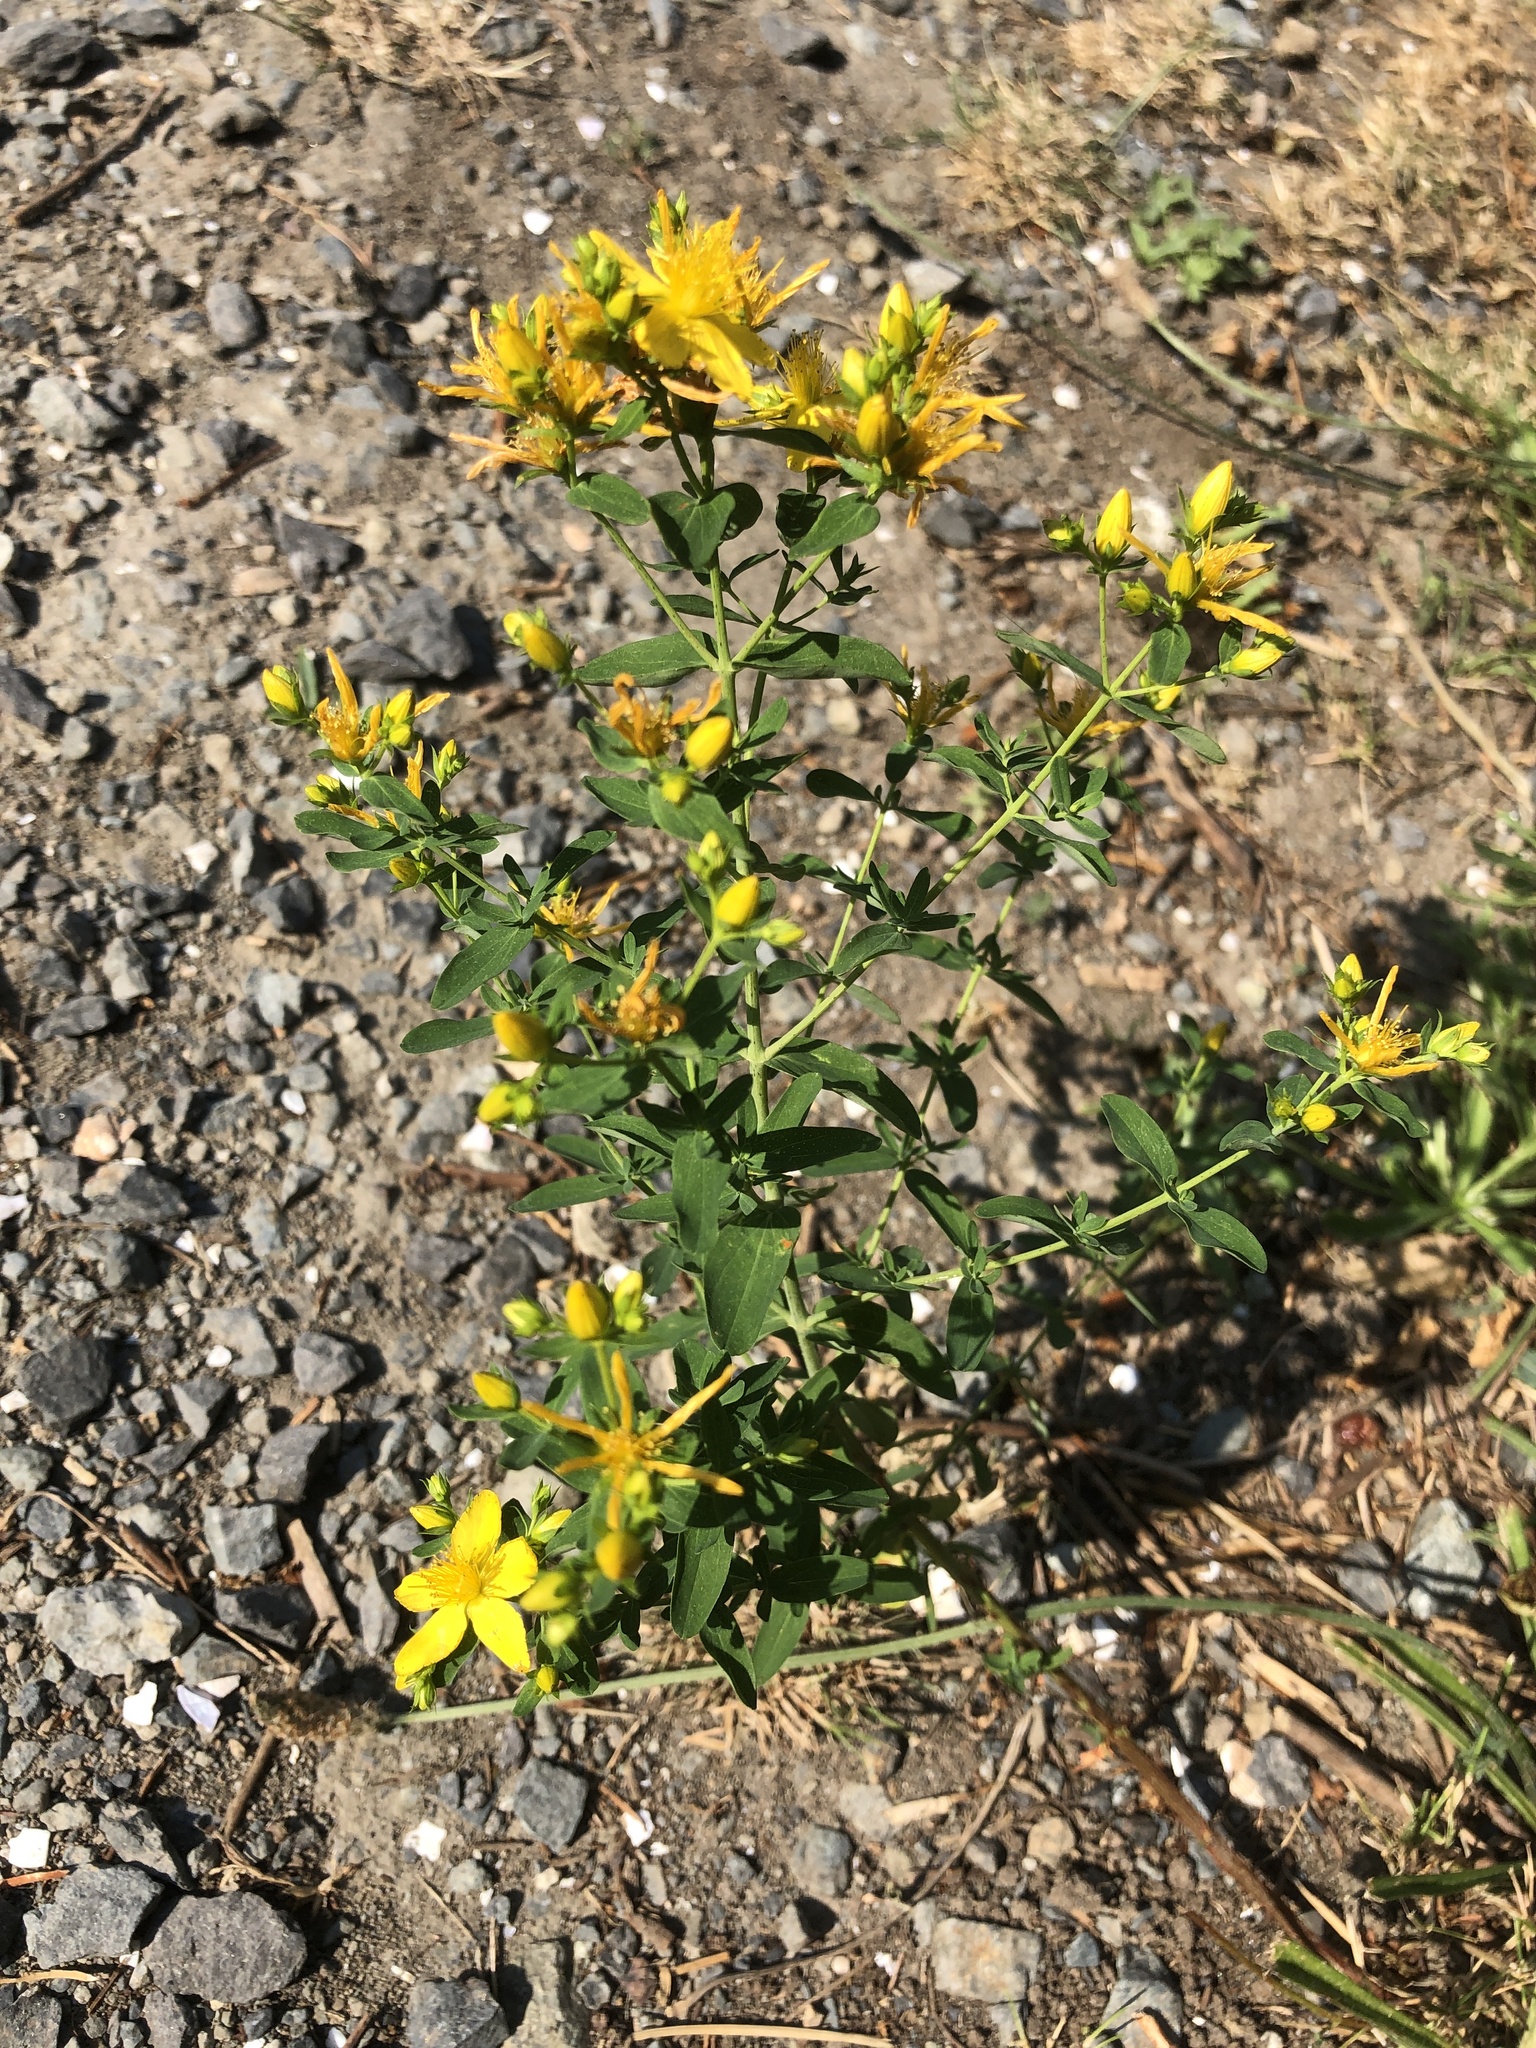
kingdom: Plantae
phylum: Tracheophyta
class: Magnoliopsida
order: Malpighiales
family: Hypericaceae
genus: Hypericum
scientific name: Hypericum perforatum
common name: Common st. johnswort
